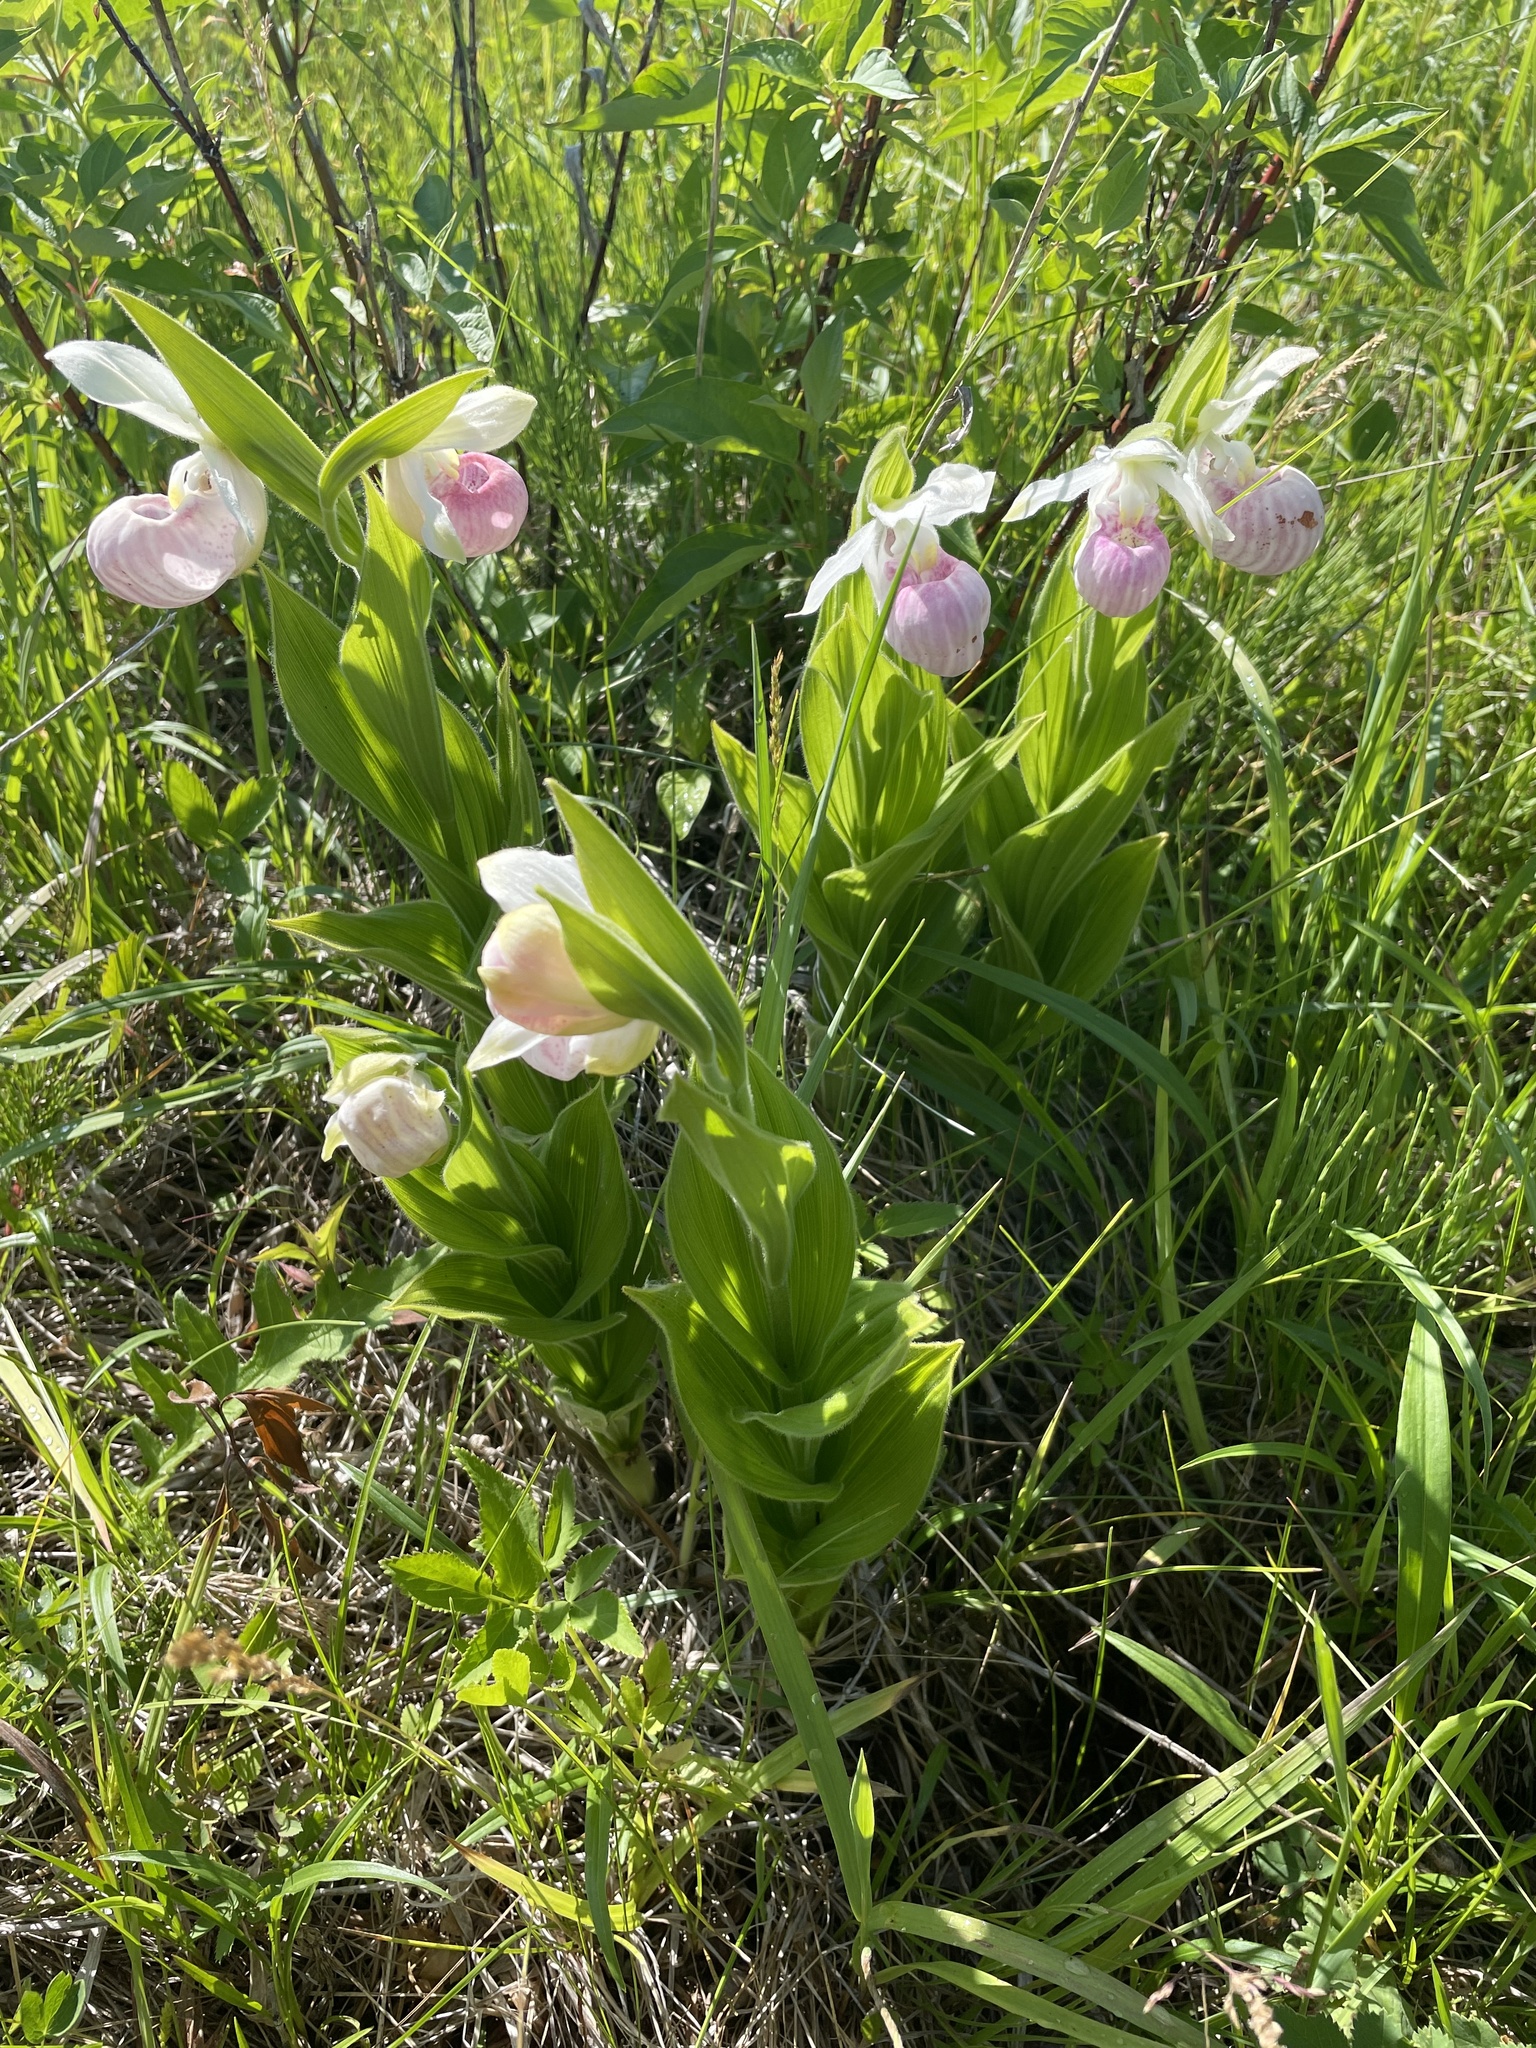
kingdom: Plantae
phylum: Tracheophyta
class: Liliopsida
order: Asparagales
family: Orchidaceae
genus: Cypripedium
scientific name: Cypripedium reginae
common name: Queen lady's-slipper
